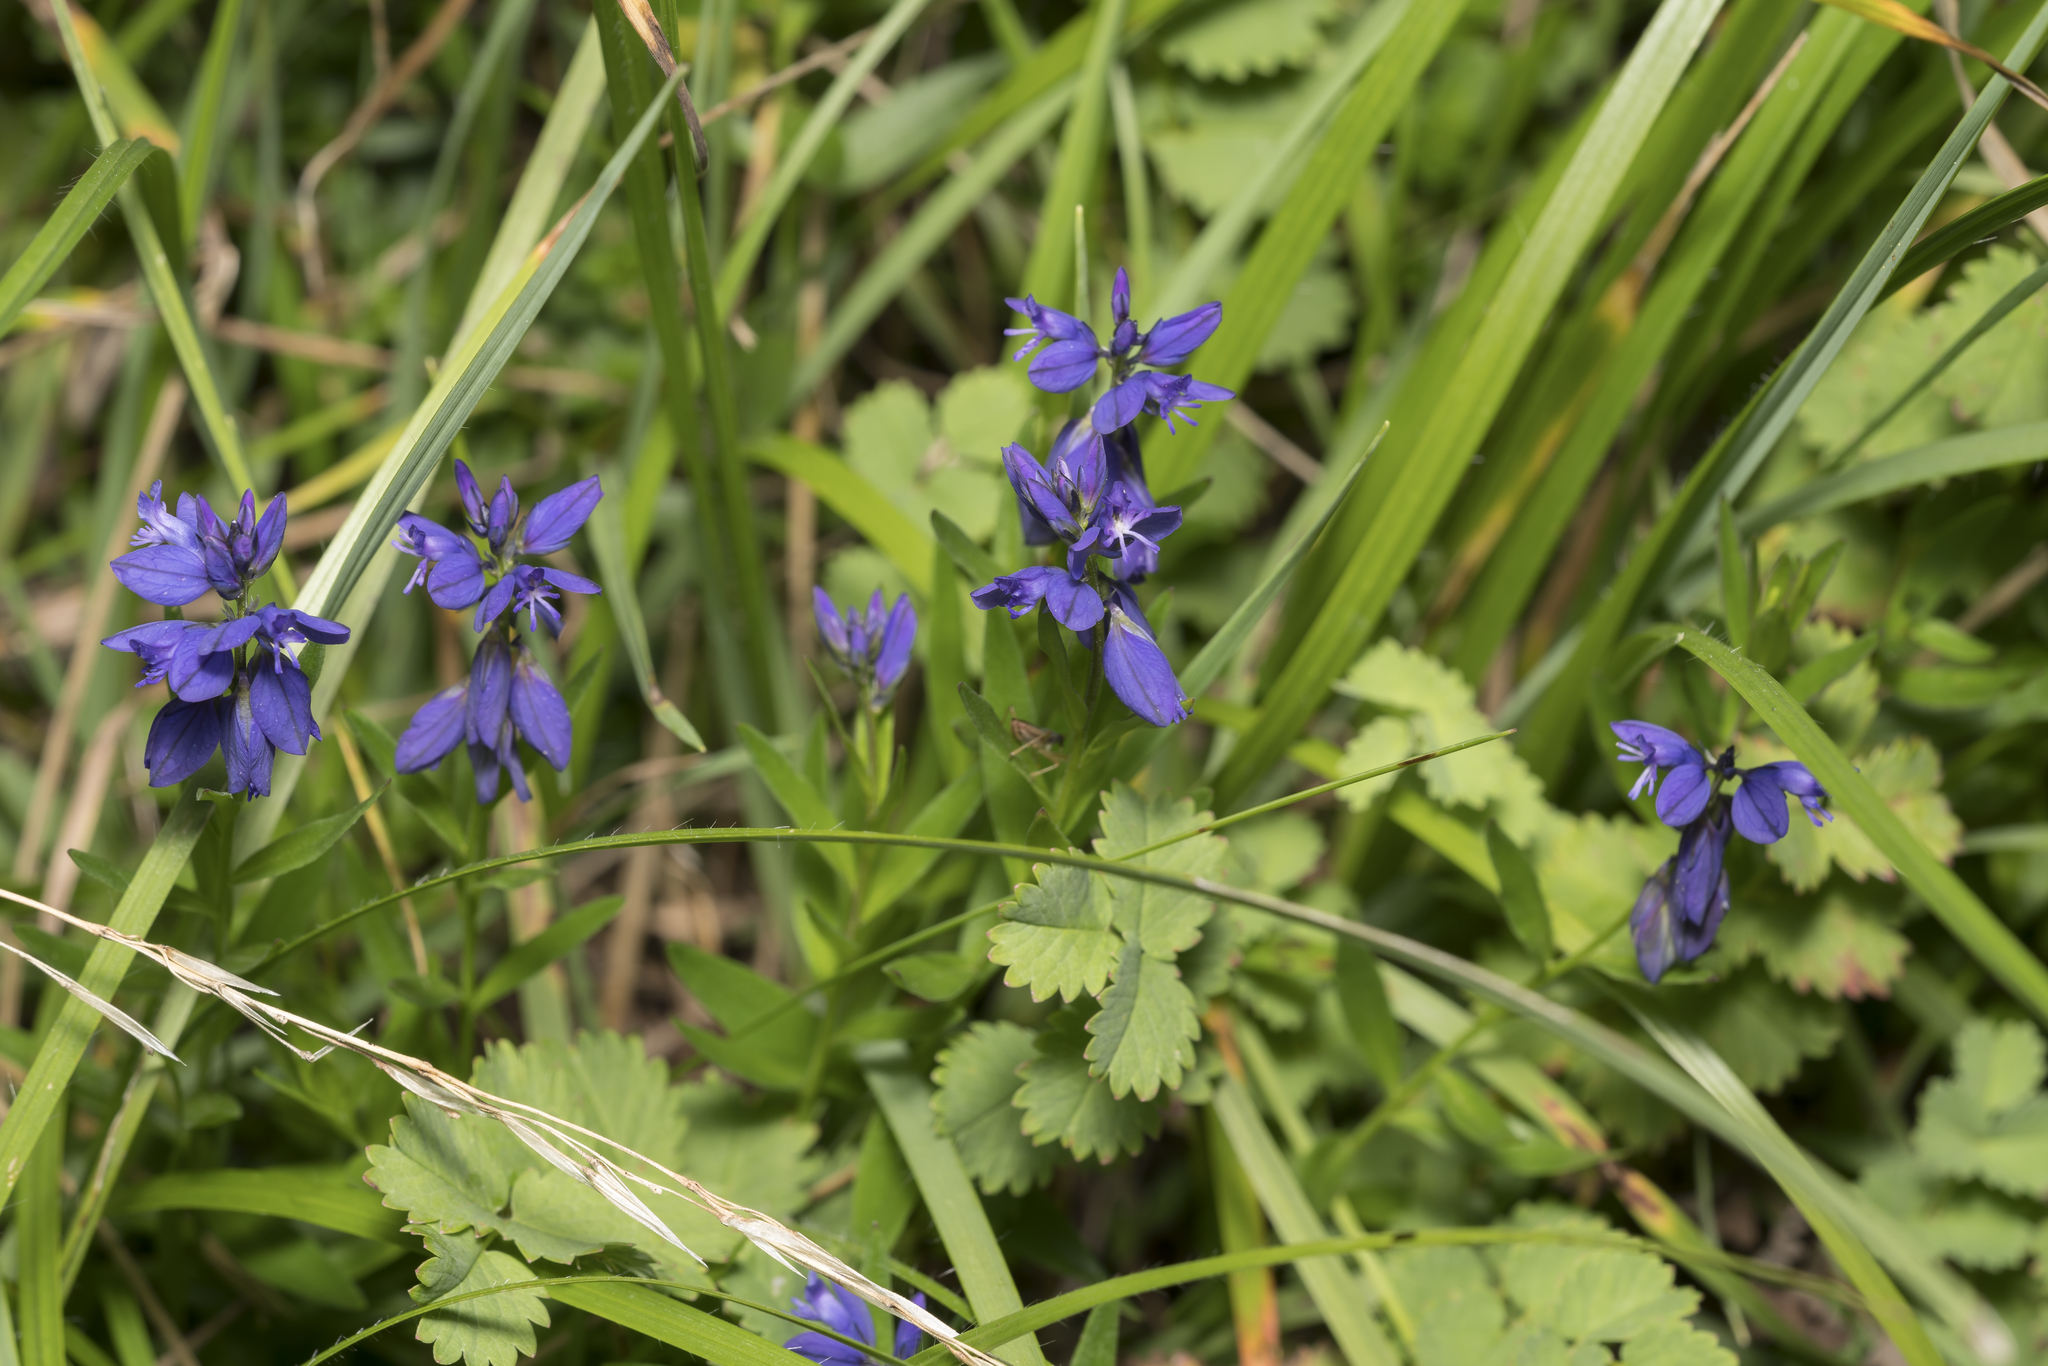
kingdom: Plantae
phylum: Tracheophyta
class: Magnoliopsida
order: Fabales
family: Polygalaceae
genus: Polygala
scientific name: Polygala vulgaris
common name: Common milkwort
